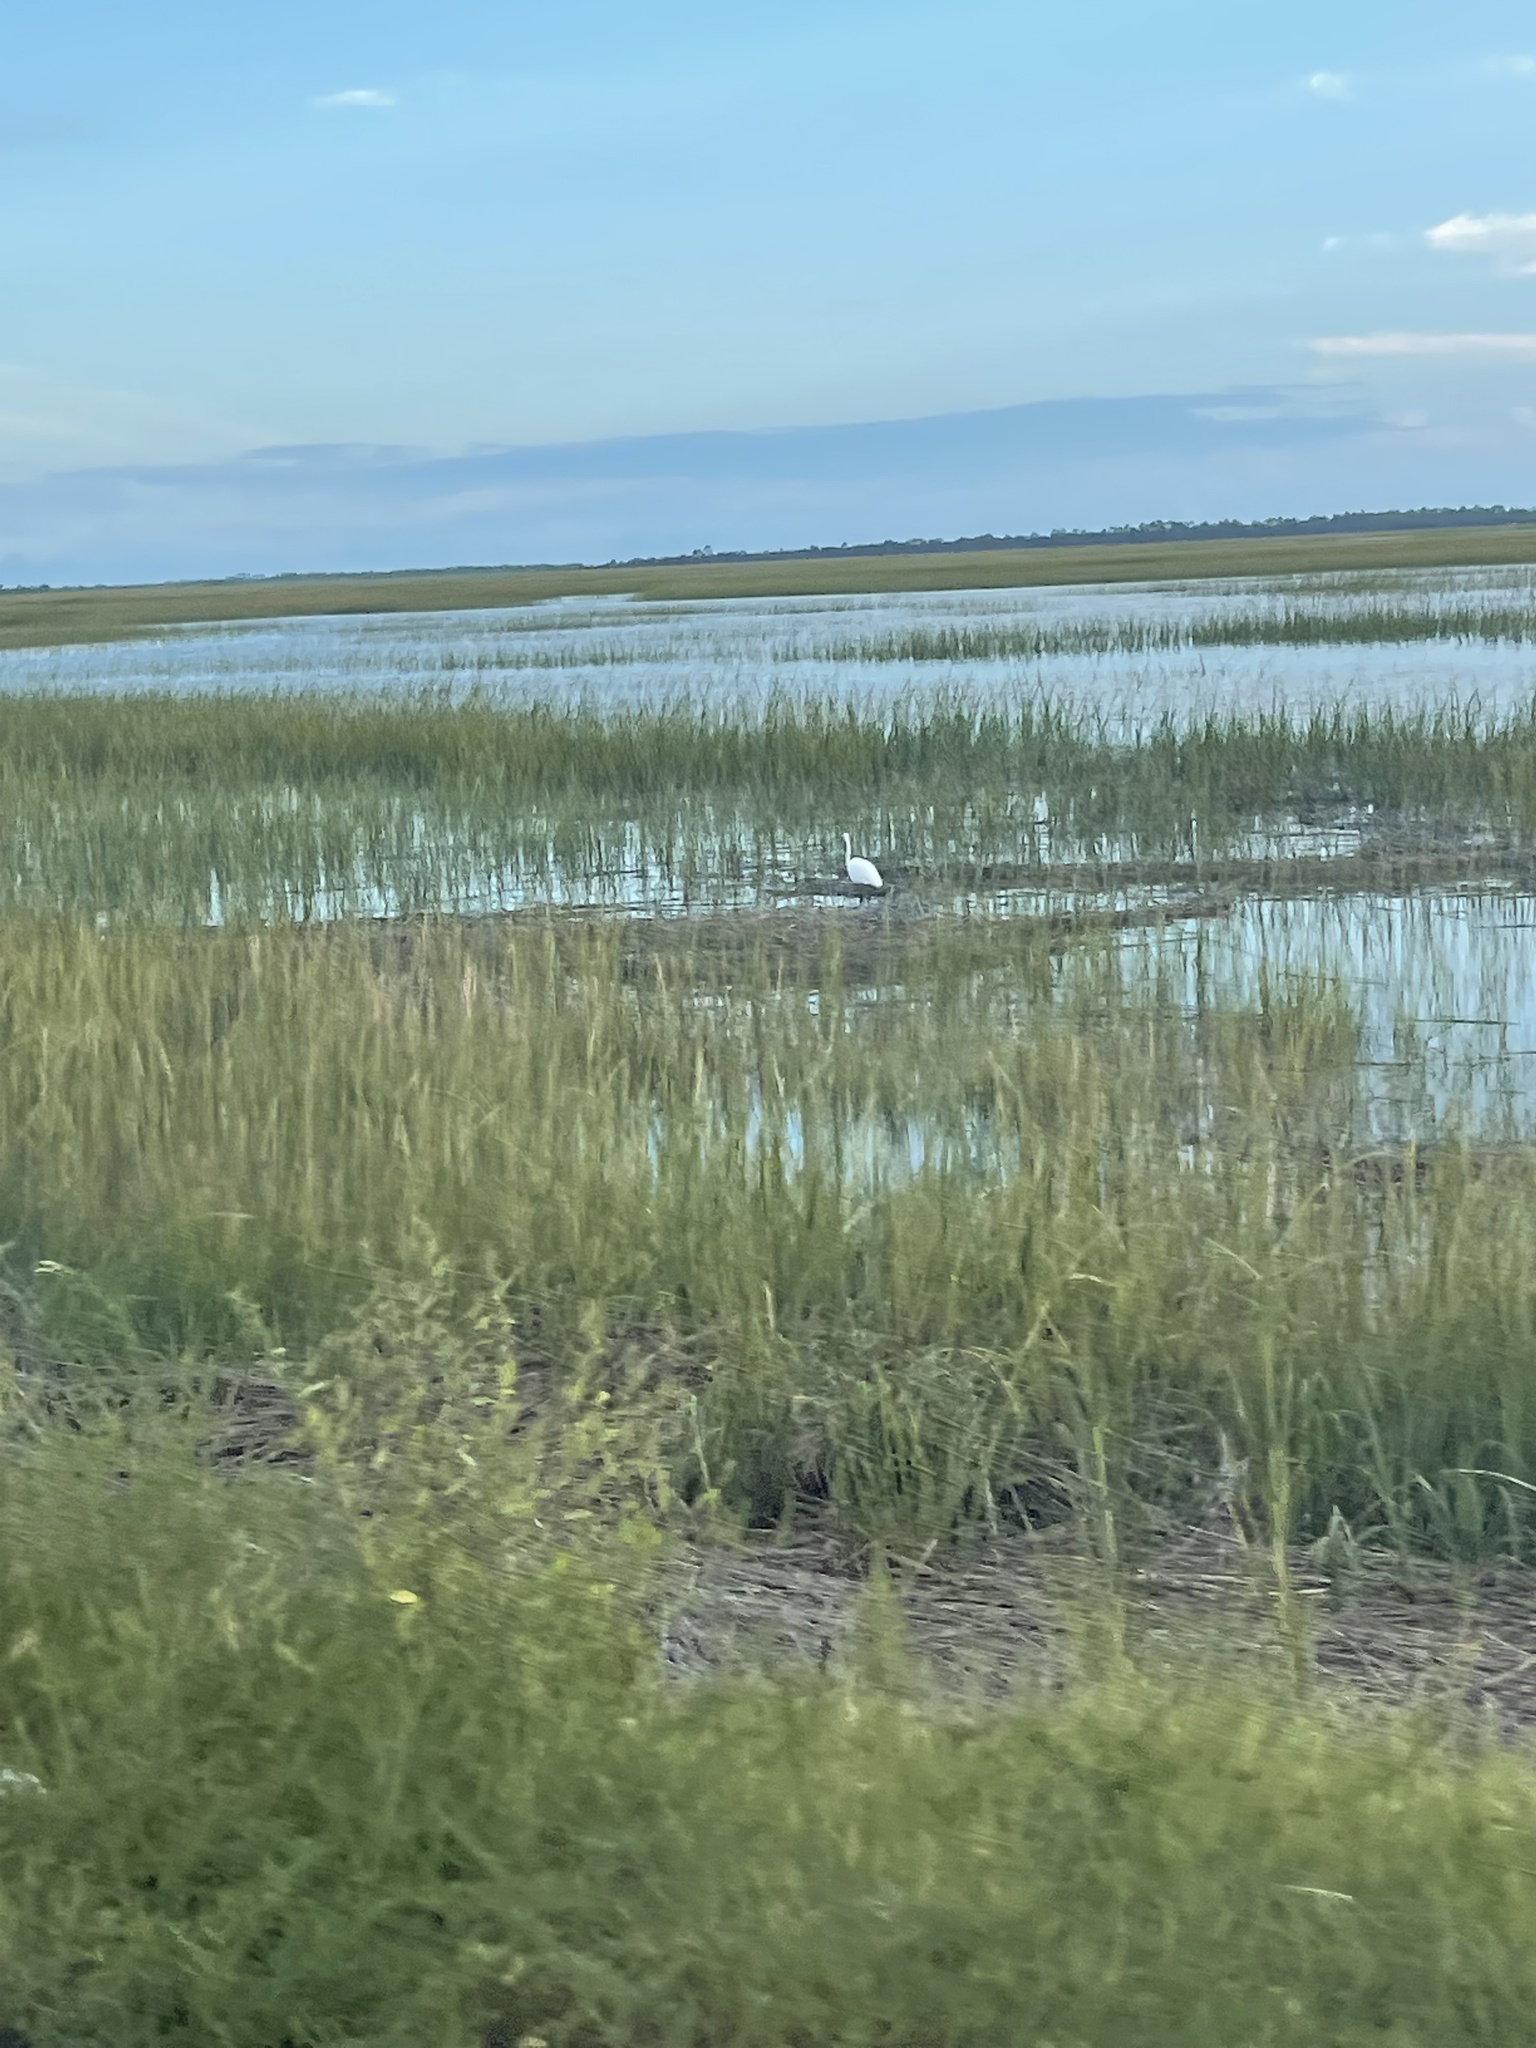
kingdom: Animalia
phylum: Chordata
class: Aves
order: Pelecaniformes
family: Ardeidae
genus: Ardea
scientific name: Ardea alba
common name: Great egret
